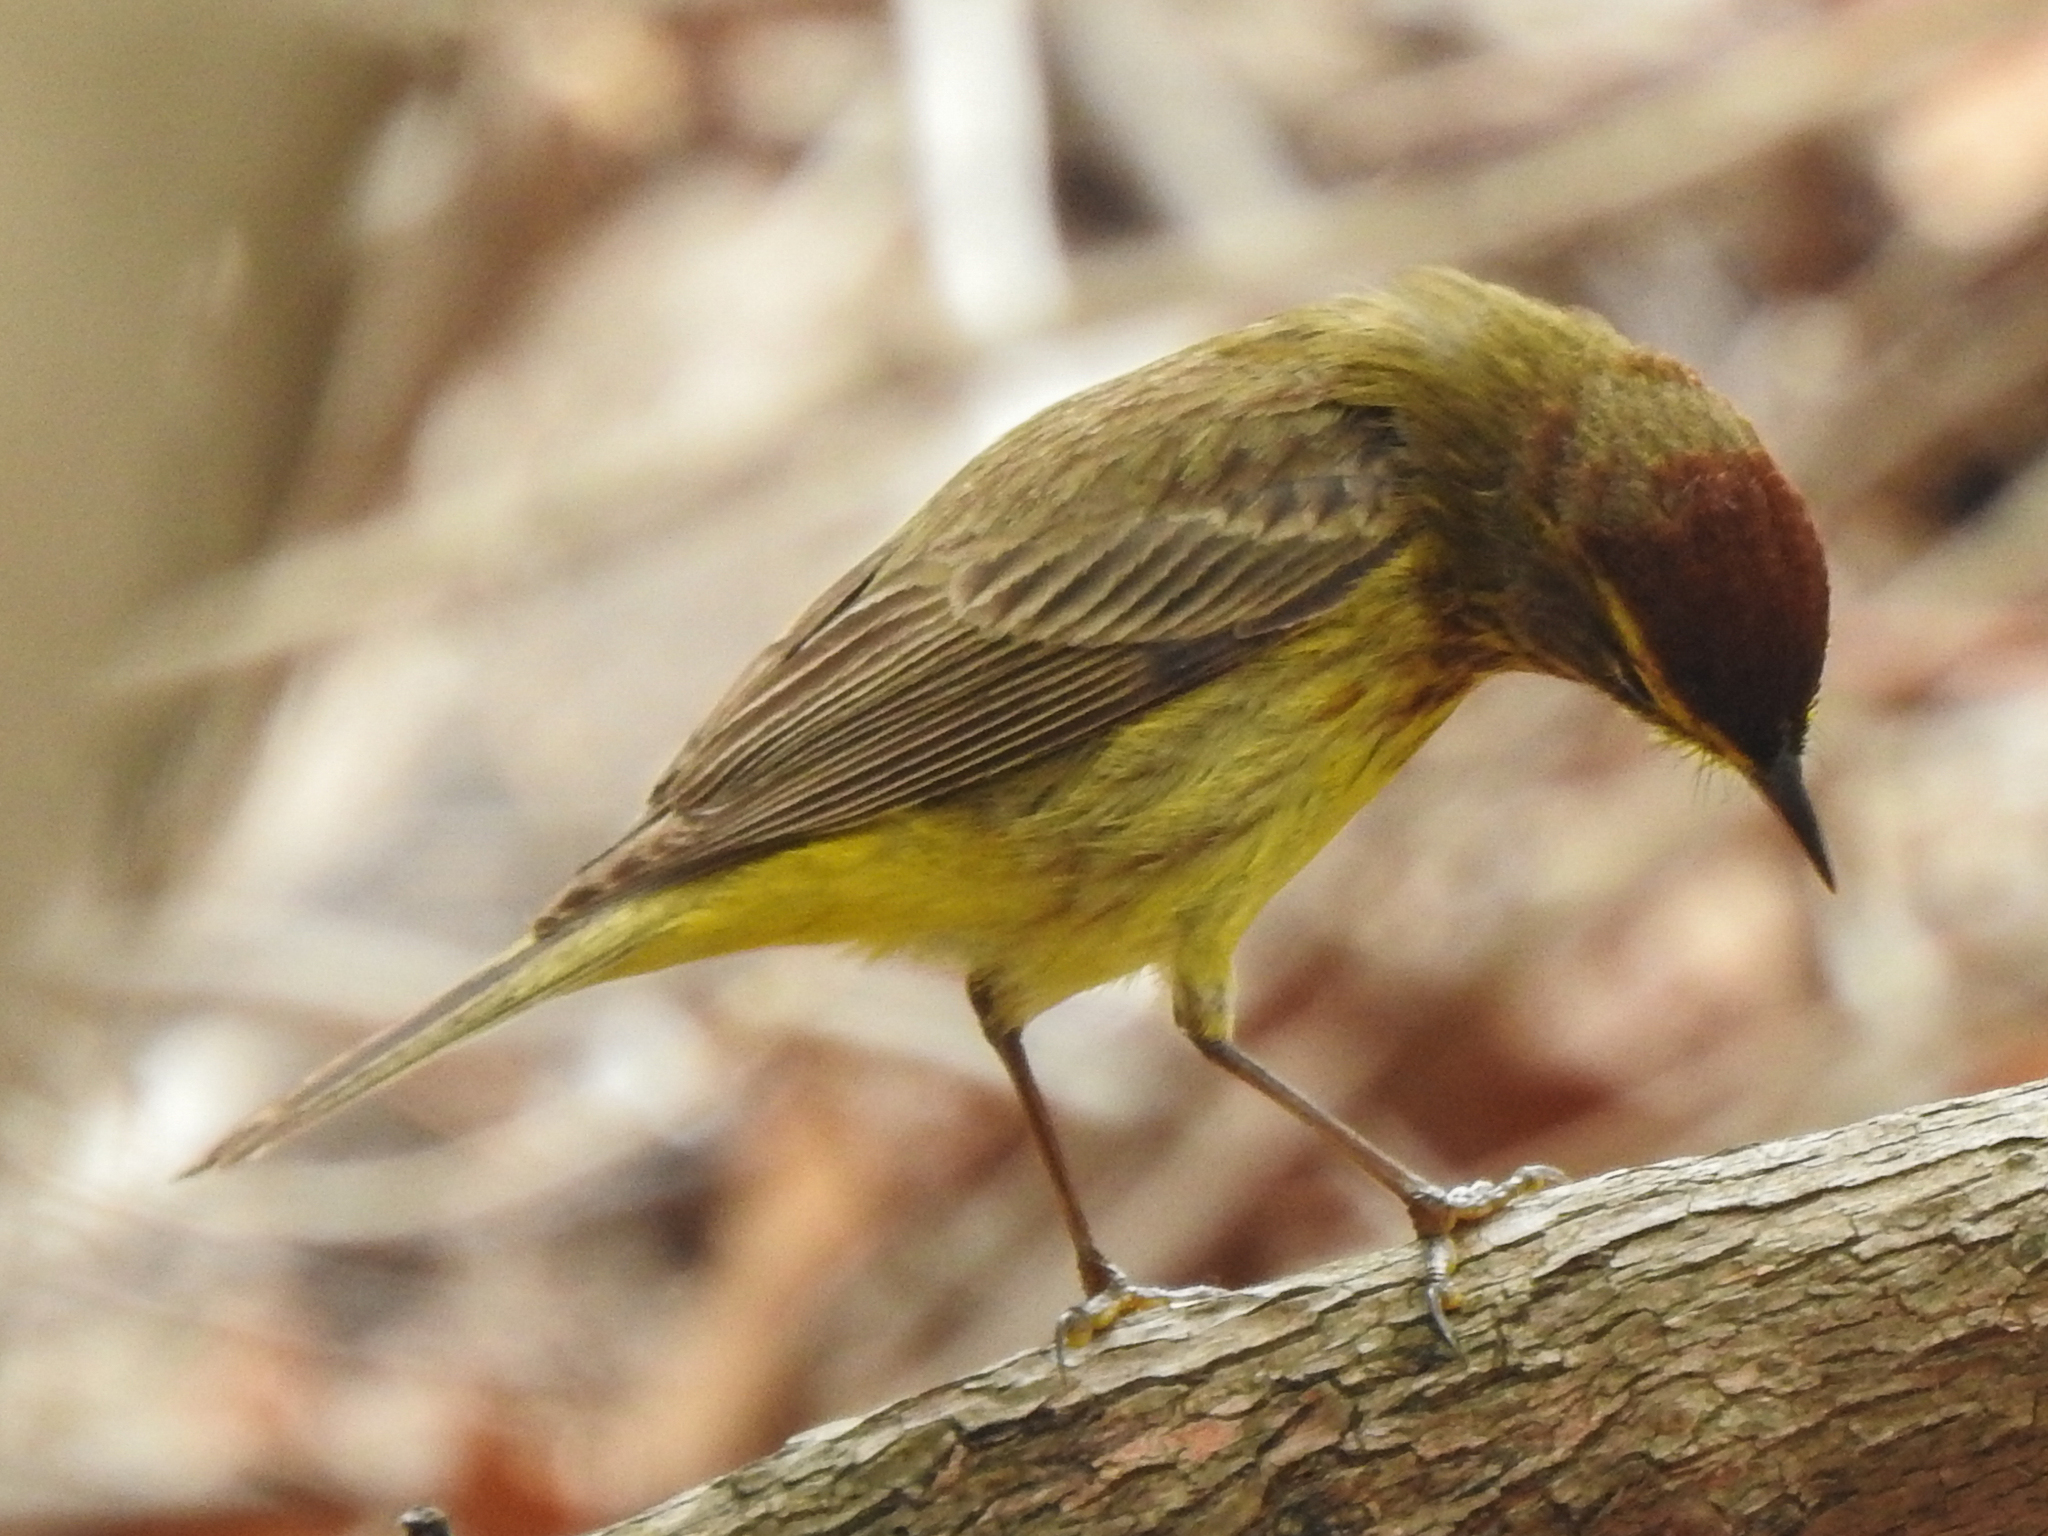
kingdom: Animalia
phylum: Chordata
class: Aves
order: Passeriformes
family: Parulidae
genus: Setophaga
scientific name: Setophaga palmarum
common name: Palm warbler
